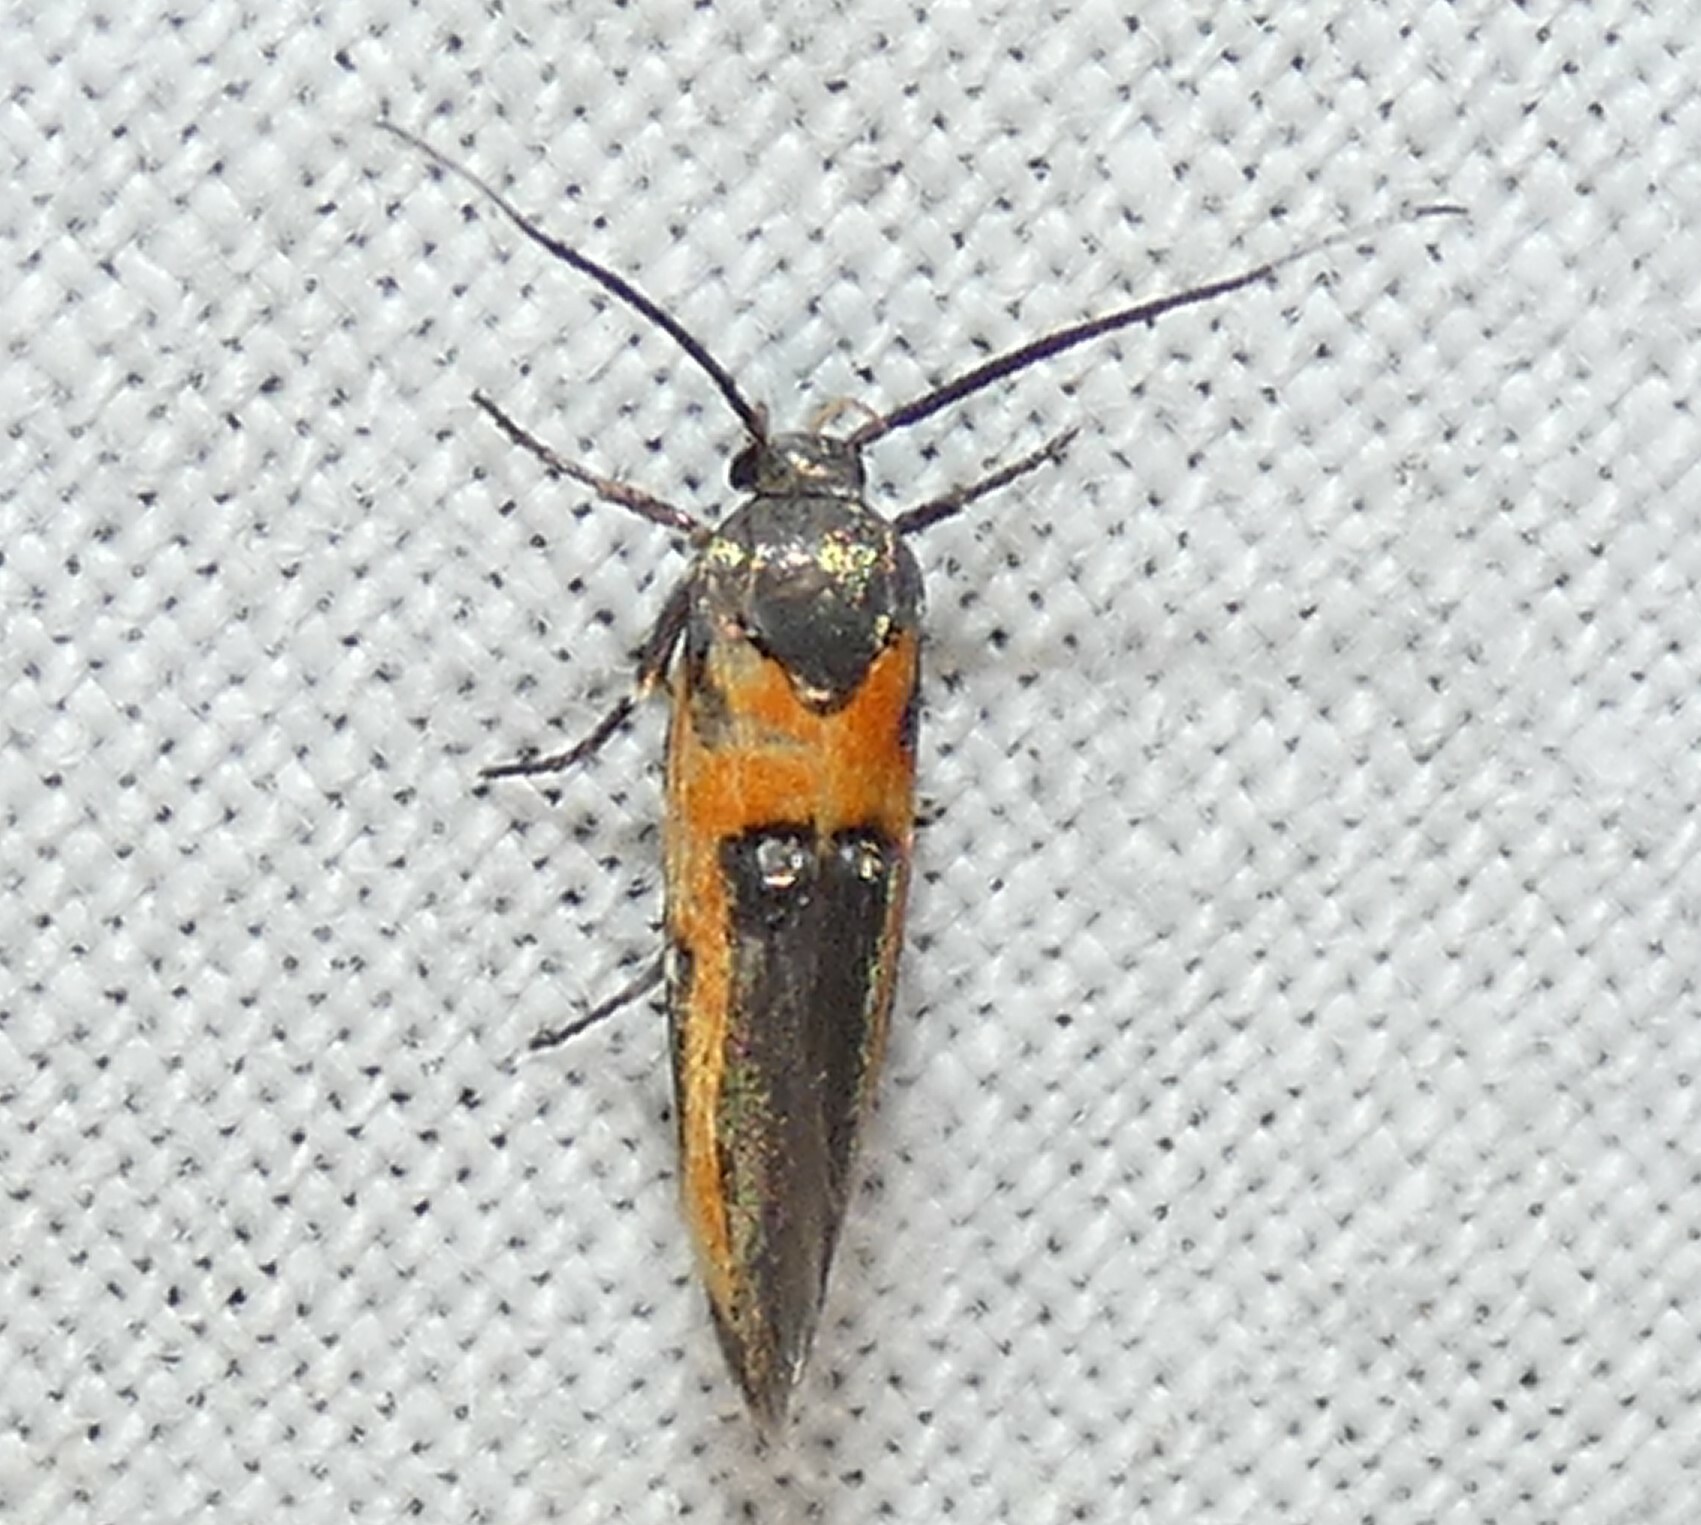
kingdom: Animalia
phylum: Arthropoda
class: Insecta
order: Lepidoptera
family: Cosmopterigidae
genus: Euclemensia
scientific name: Euclemensia bassettella
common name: Kermes scale moth
